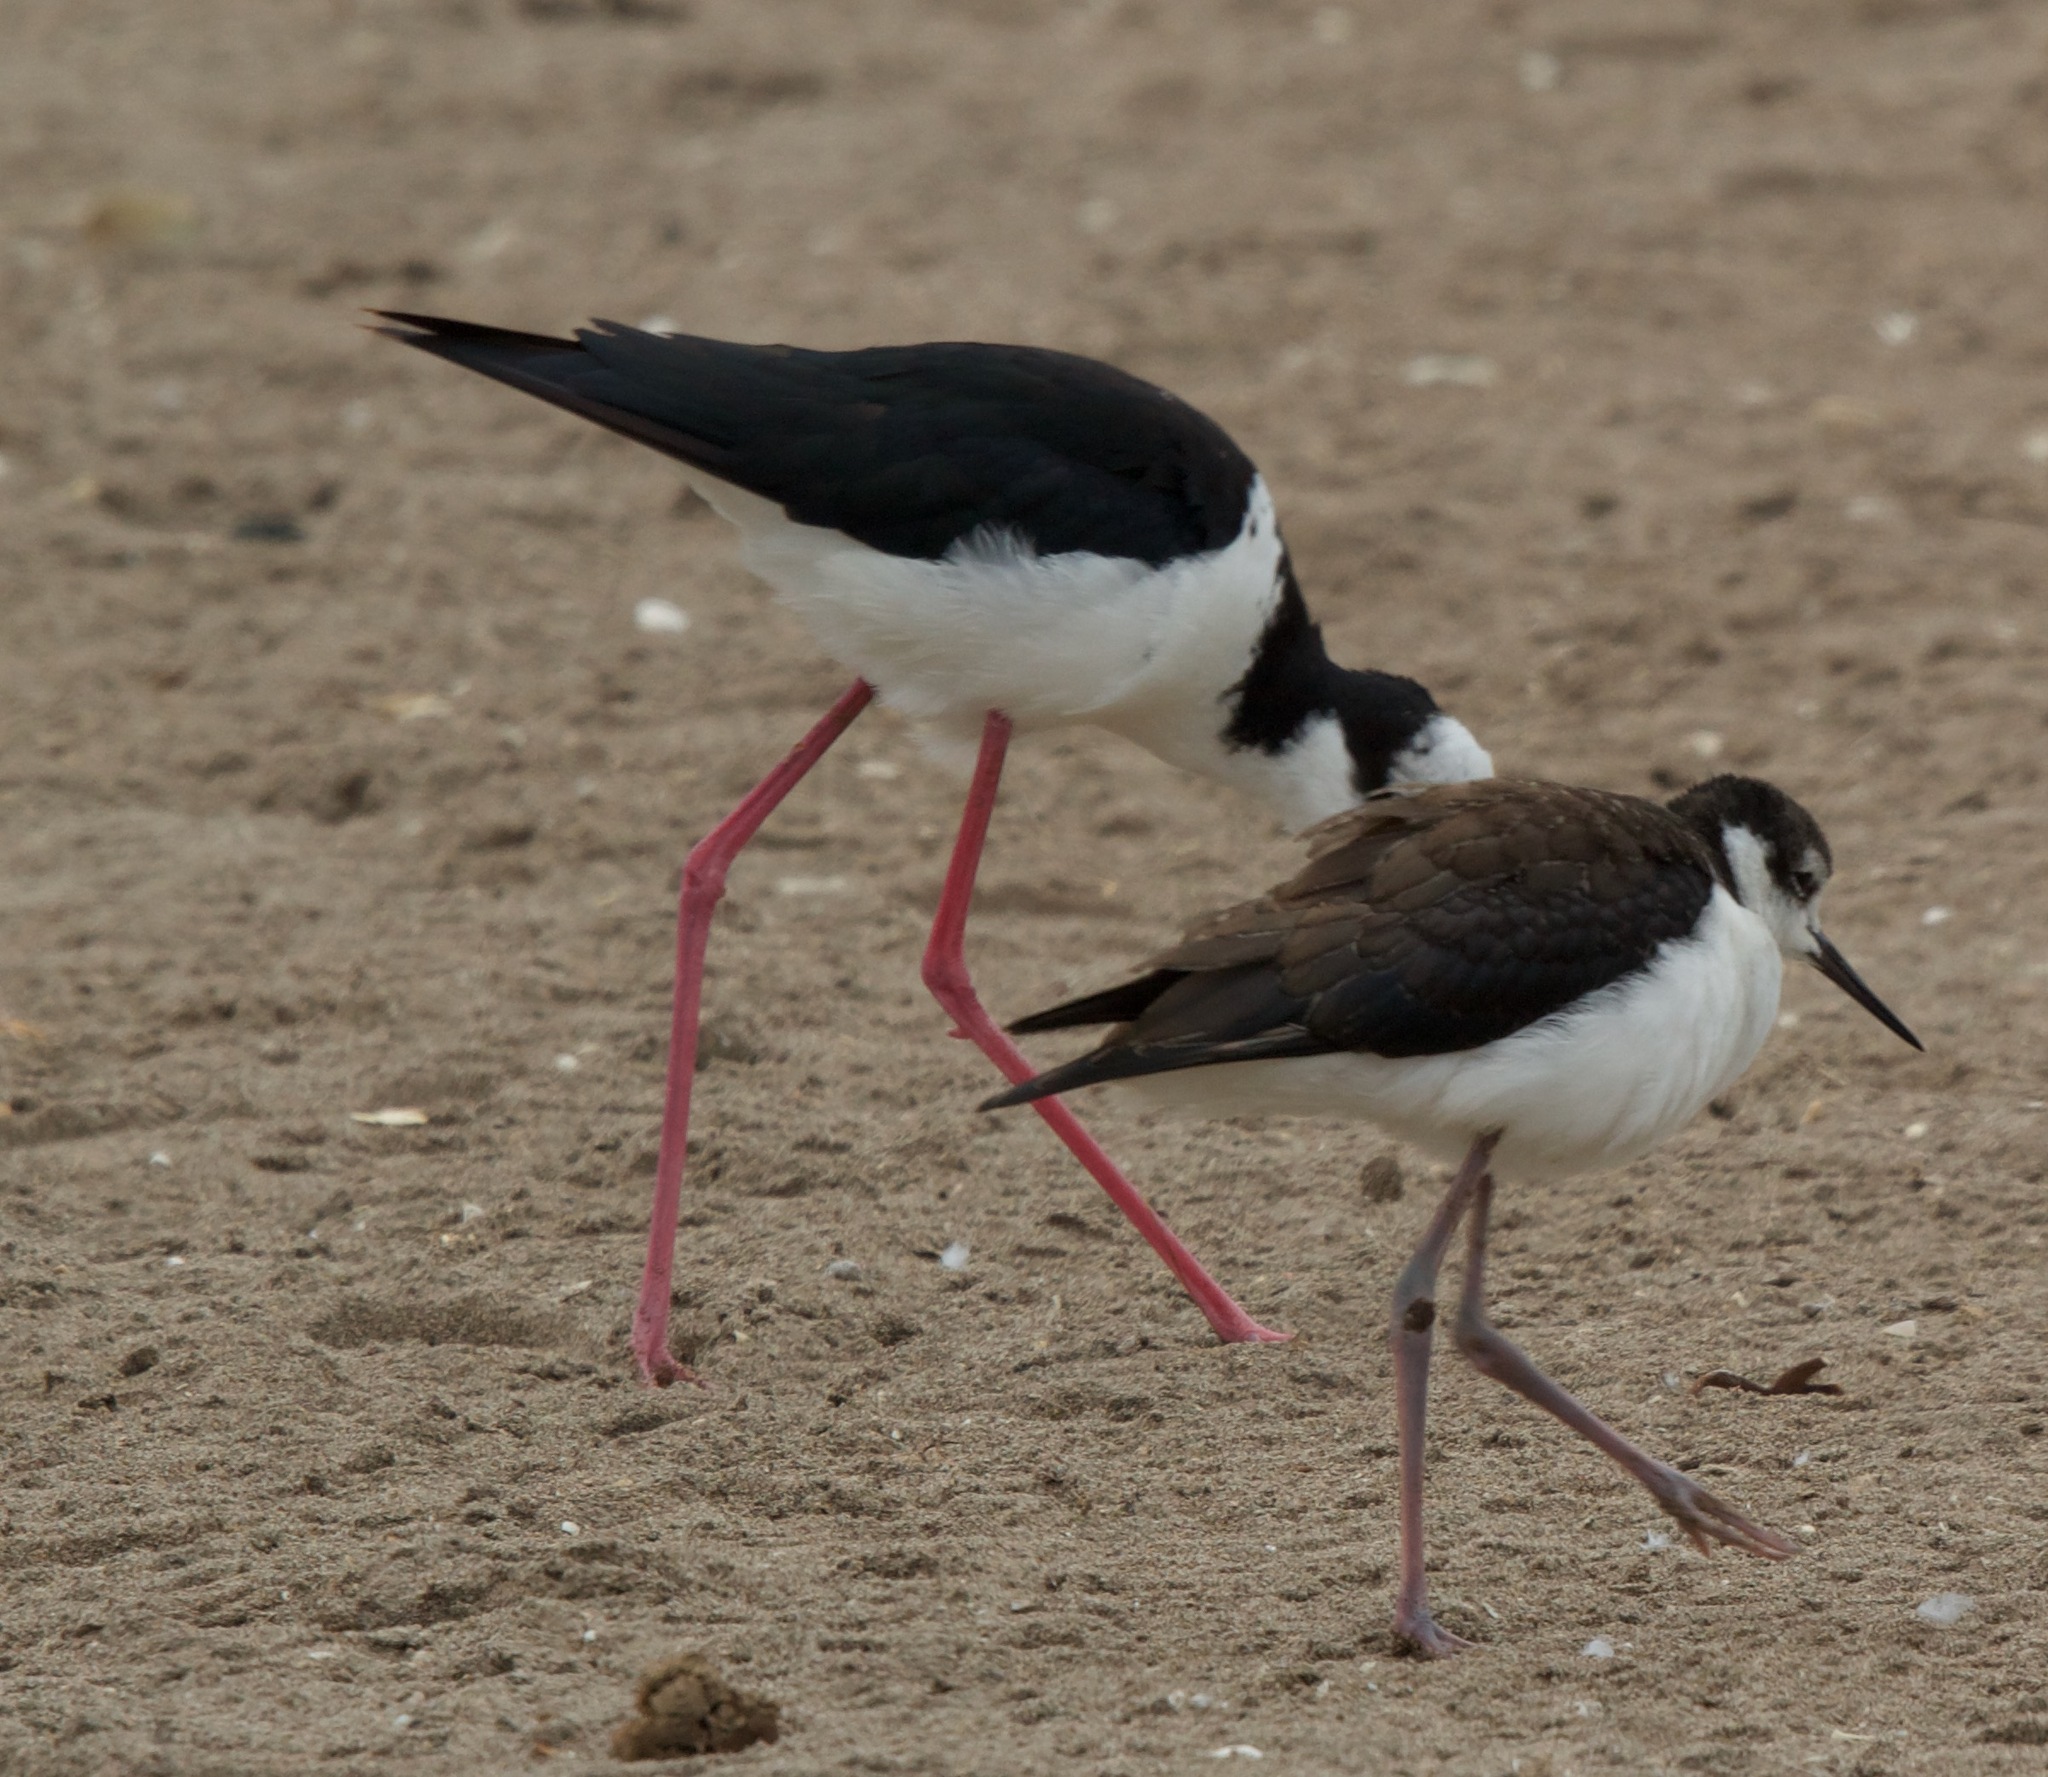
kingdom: Animalia
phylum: Chordata
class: Aves
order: Charadriiformes
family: Recurvirostridae
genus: Himantopus
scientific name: Himantopus mexicanus
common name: Black-necked stilt
